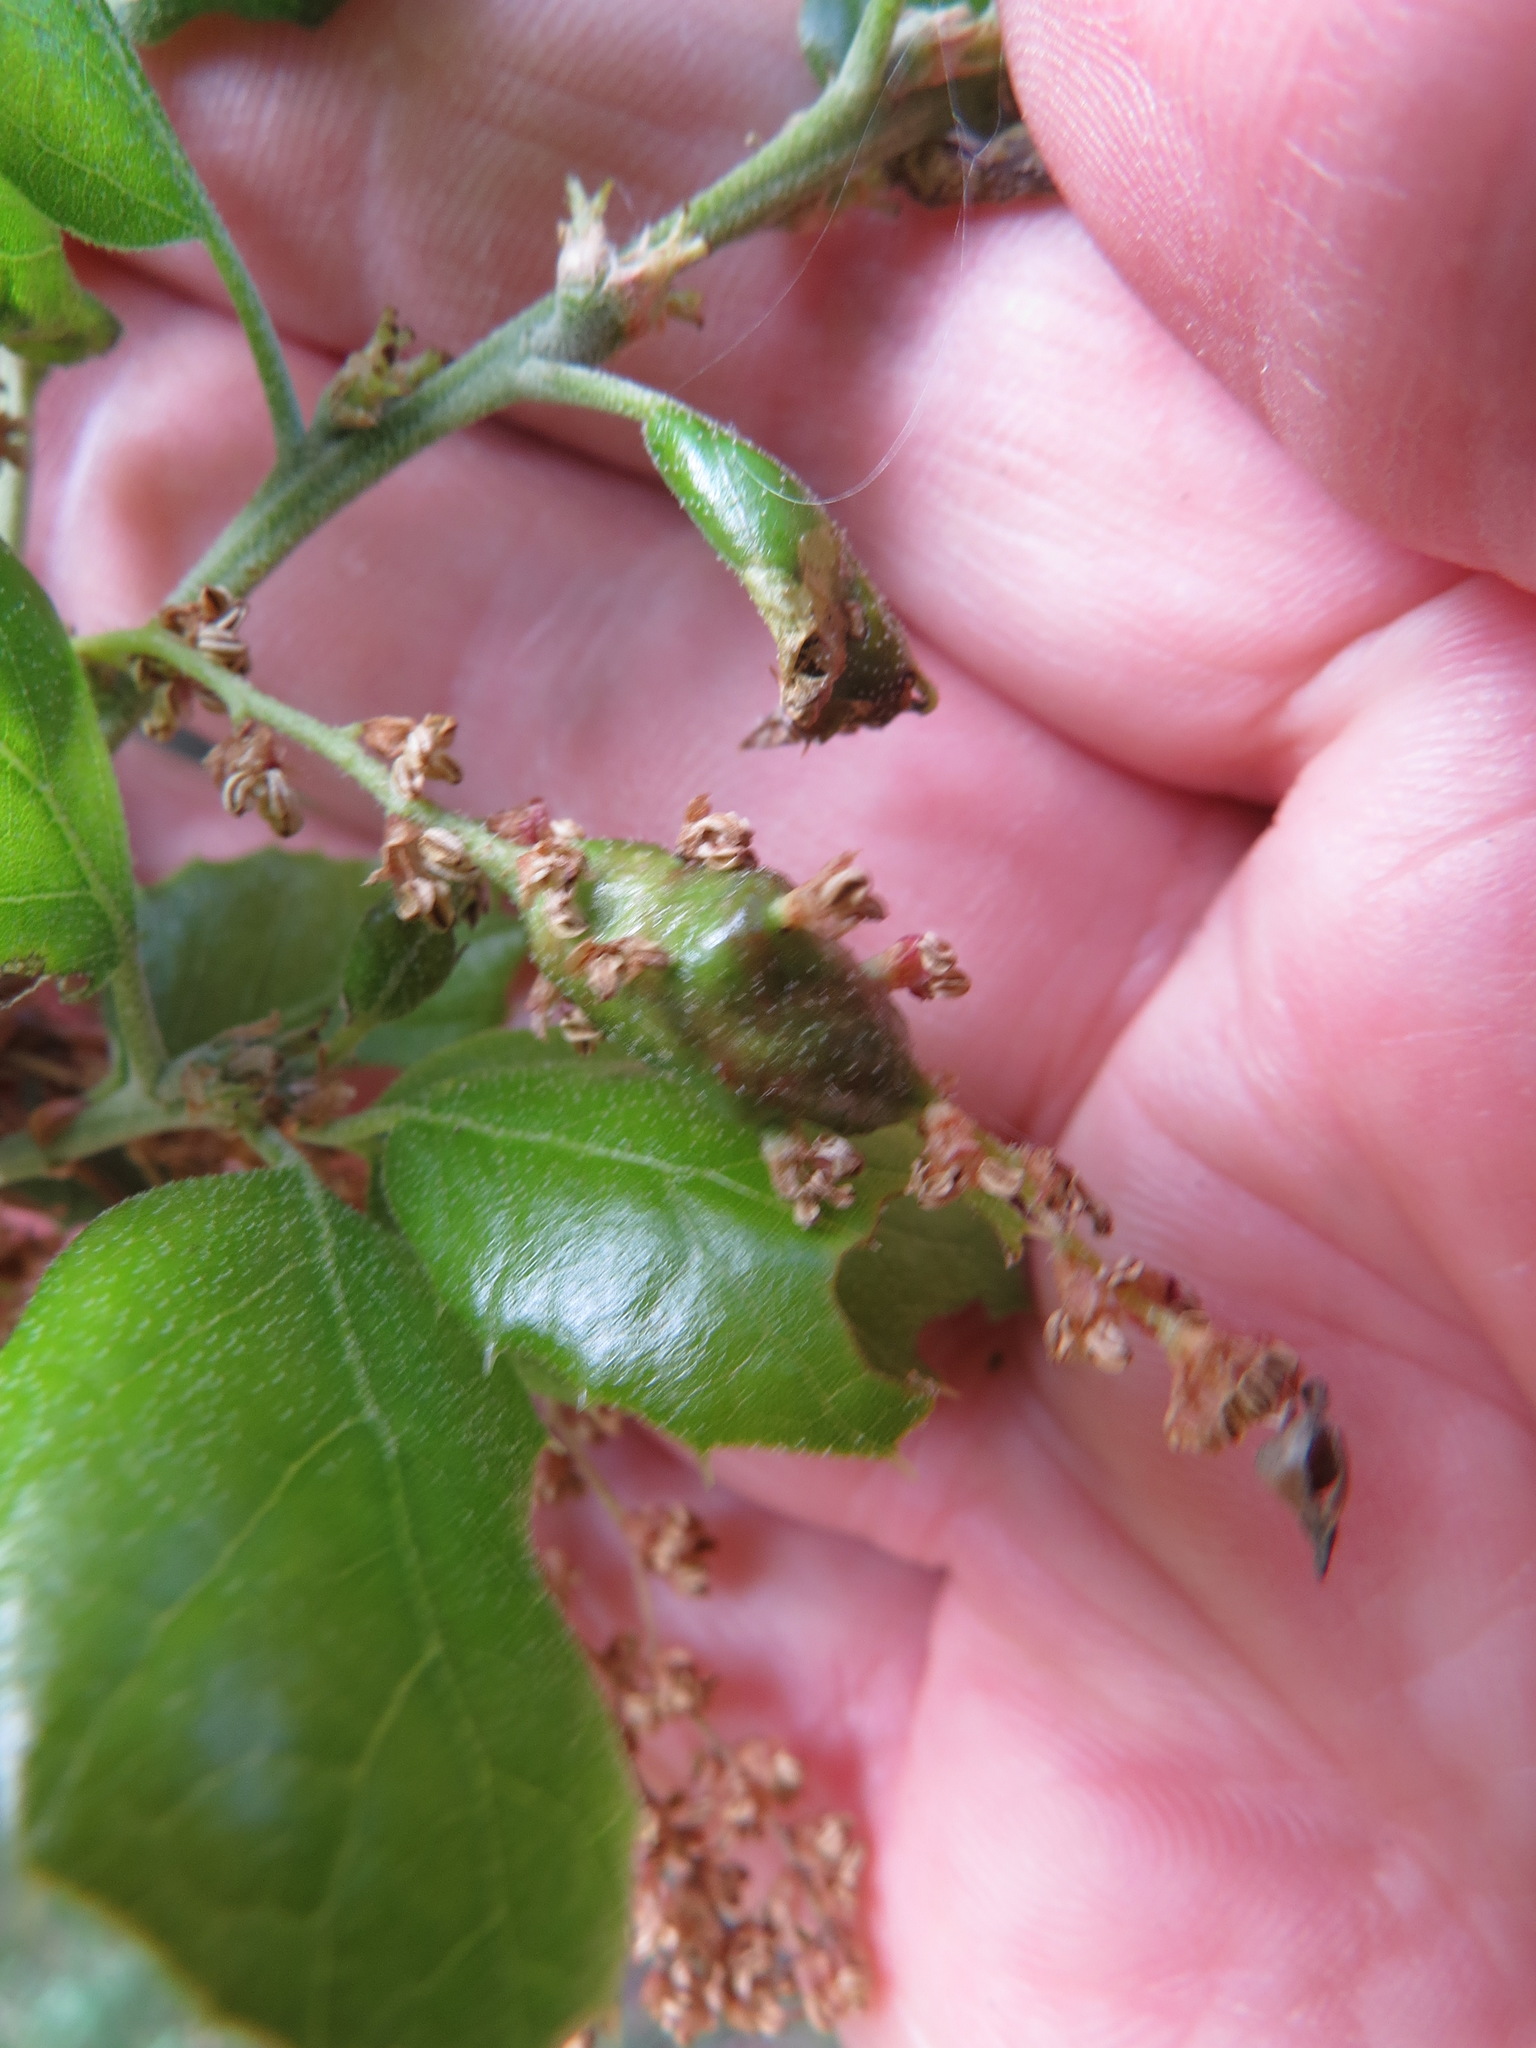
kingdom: Animalia
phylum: Arthropoda
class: Insecta
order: Hymenoptera
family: Cynipidae
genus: Callirhytis
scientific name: Callirhytis
